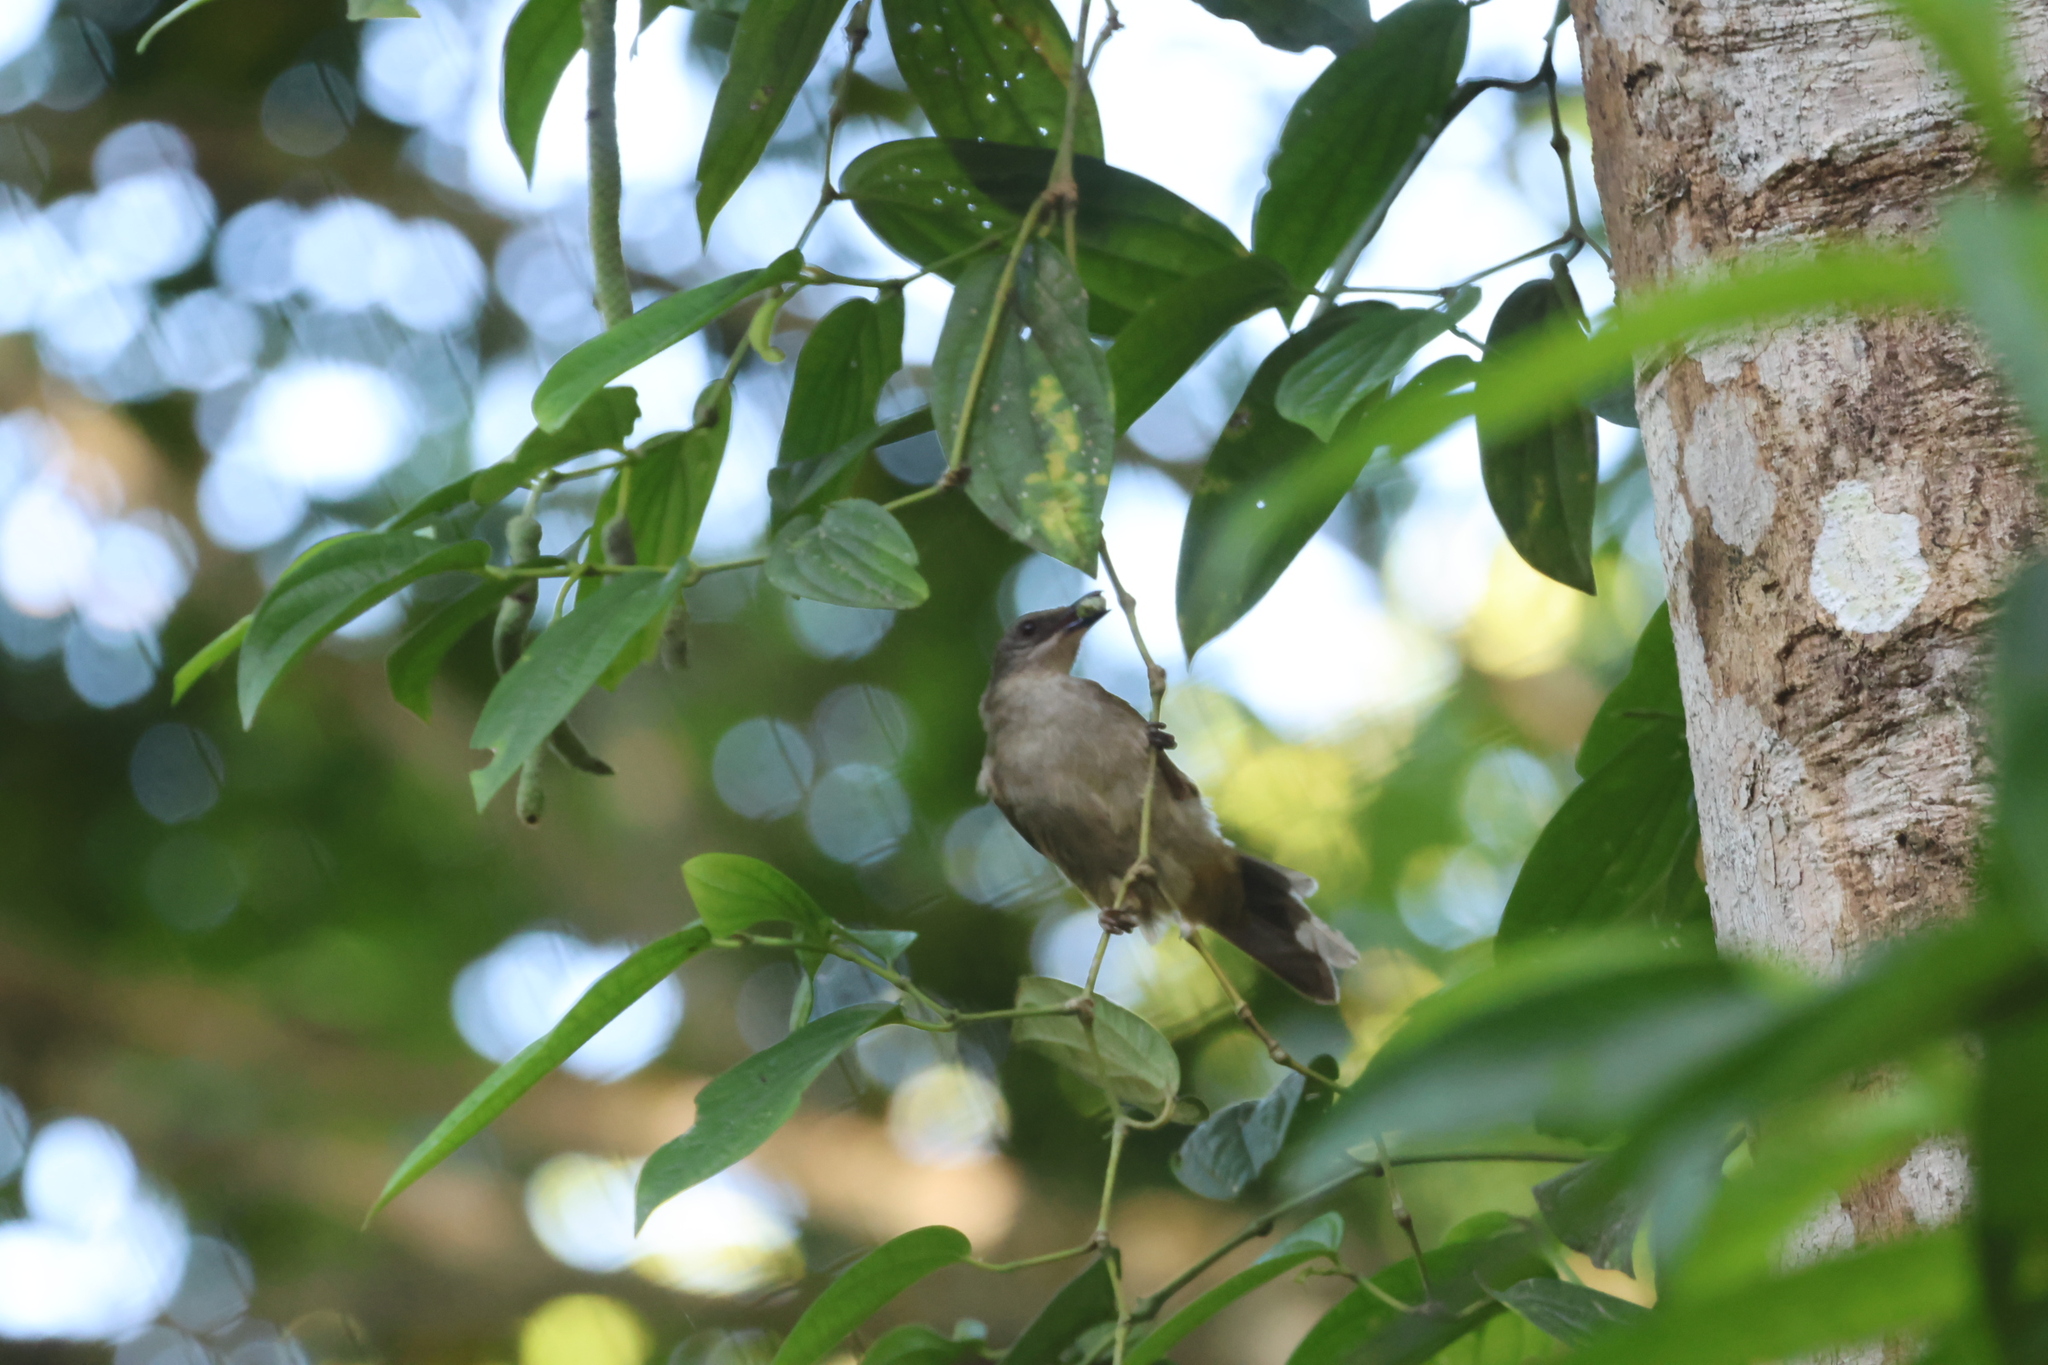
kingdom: Animalia
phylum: Chordata
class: Aves
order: Passeriformes
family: Pycnonotidae
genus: Pycnonotus
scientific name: Pycnonotus plumosus
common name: Olive-winged bulbul
